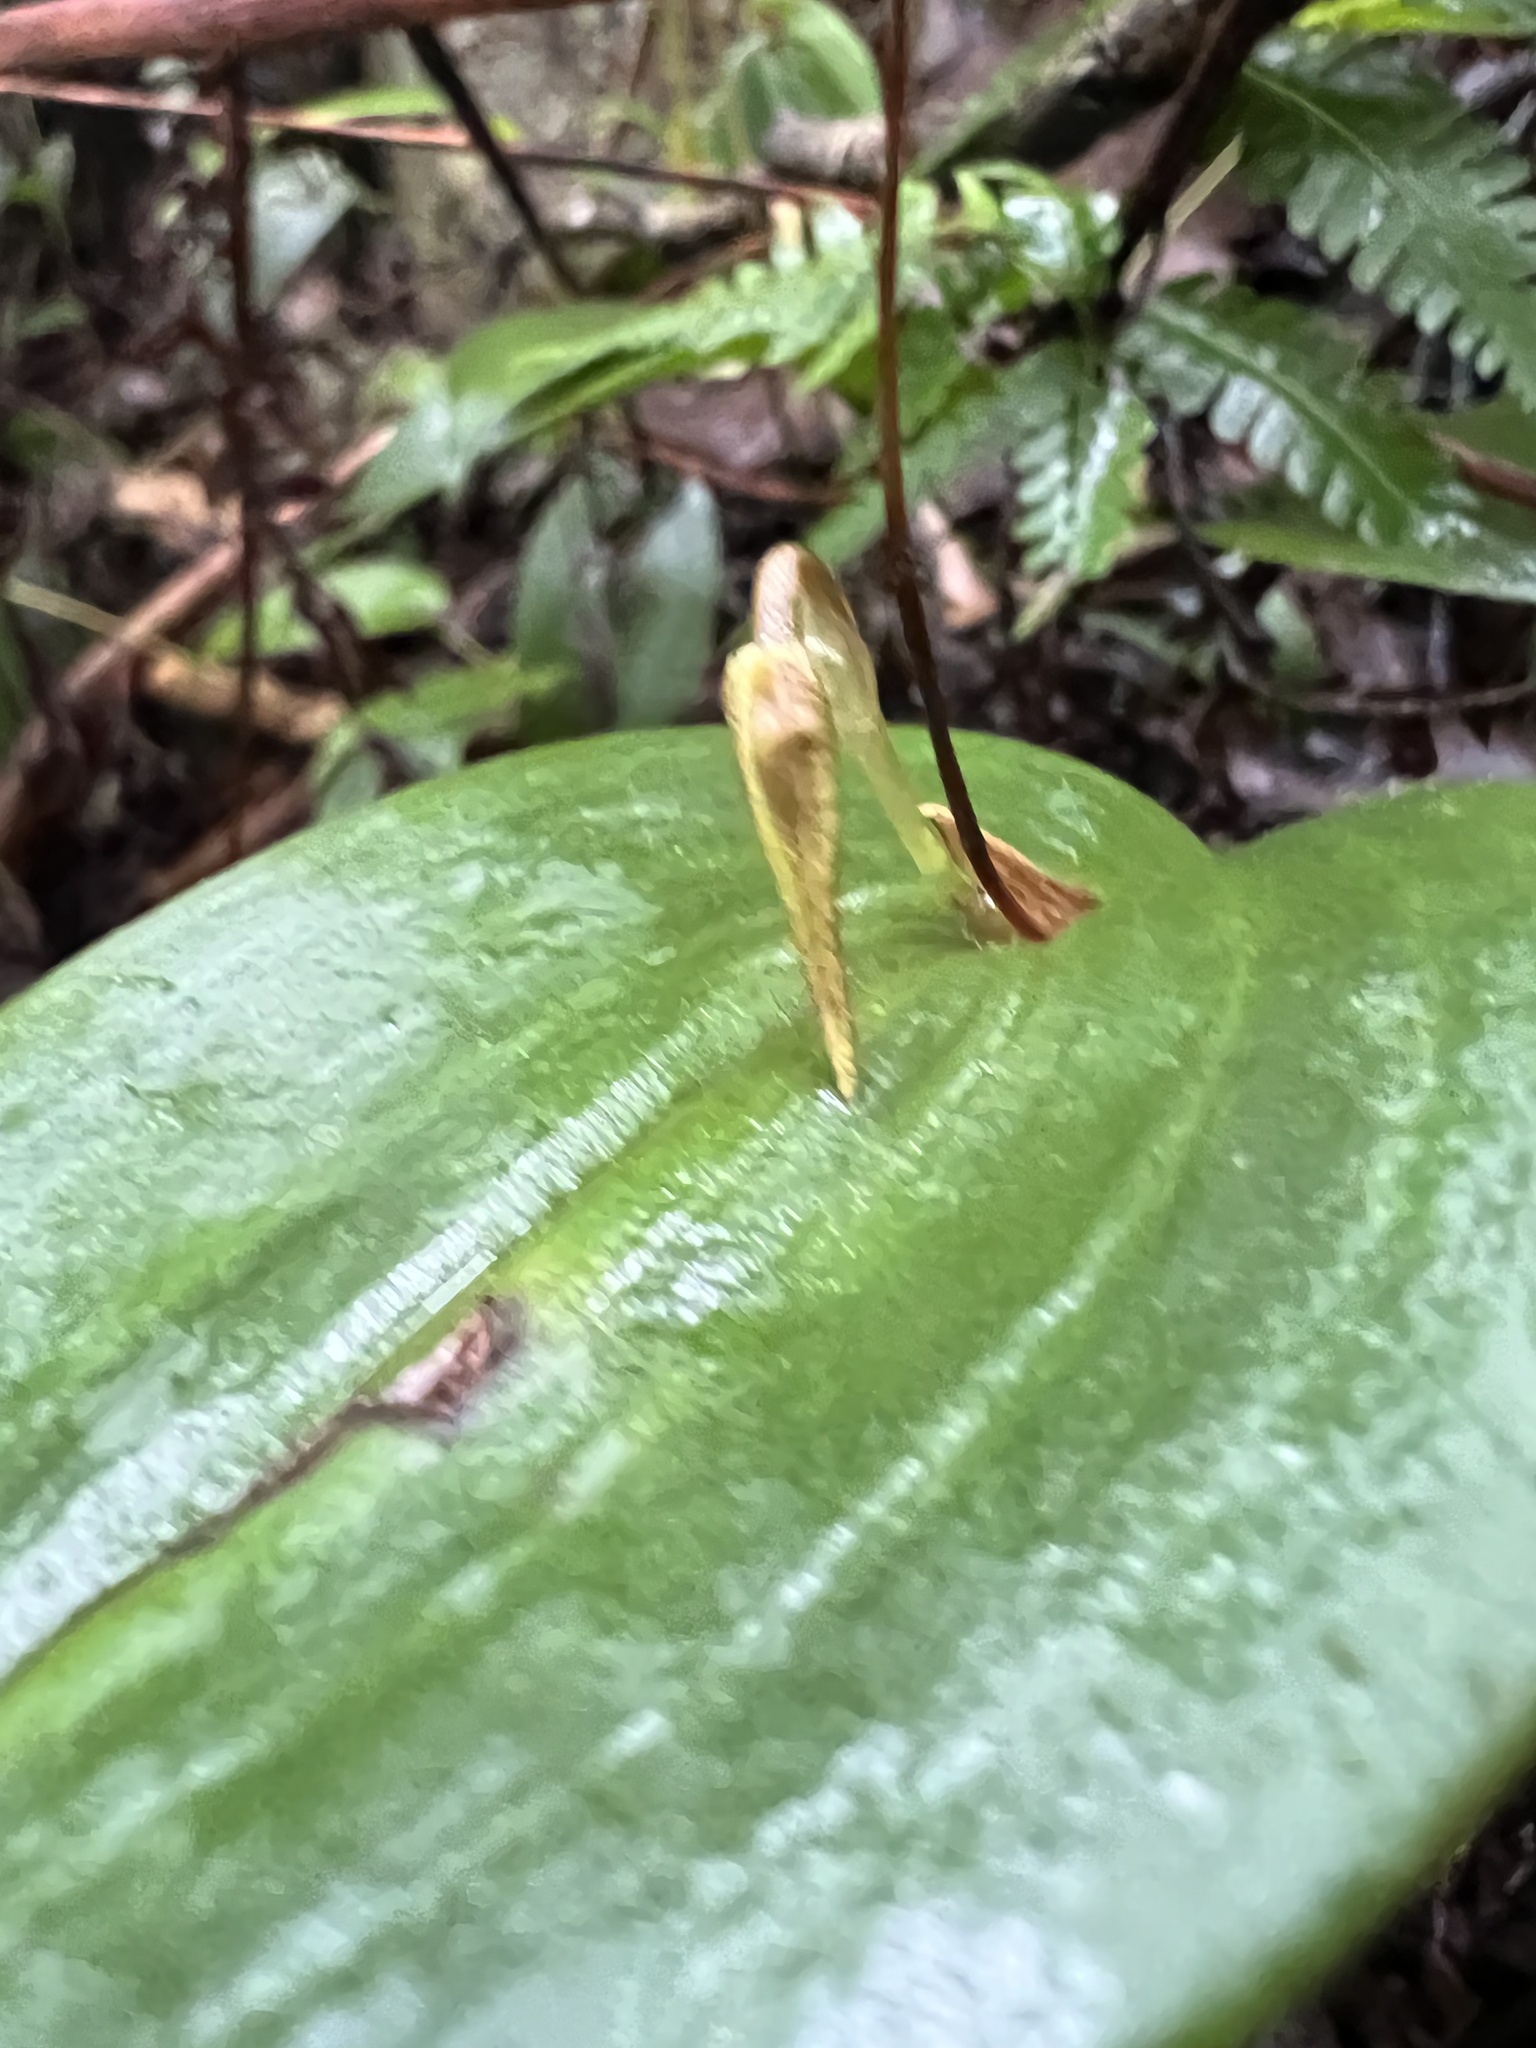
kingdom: Plantae
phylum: Tracheophyta
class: Liliopsida
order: Asparagales
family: Orchidaceae
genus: Pleurothallis
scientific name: Pleurothallis killipii
